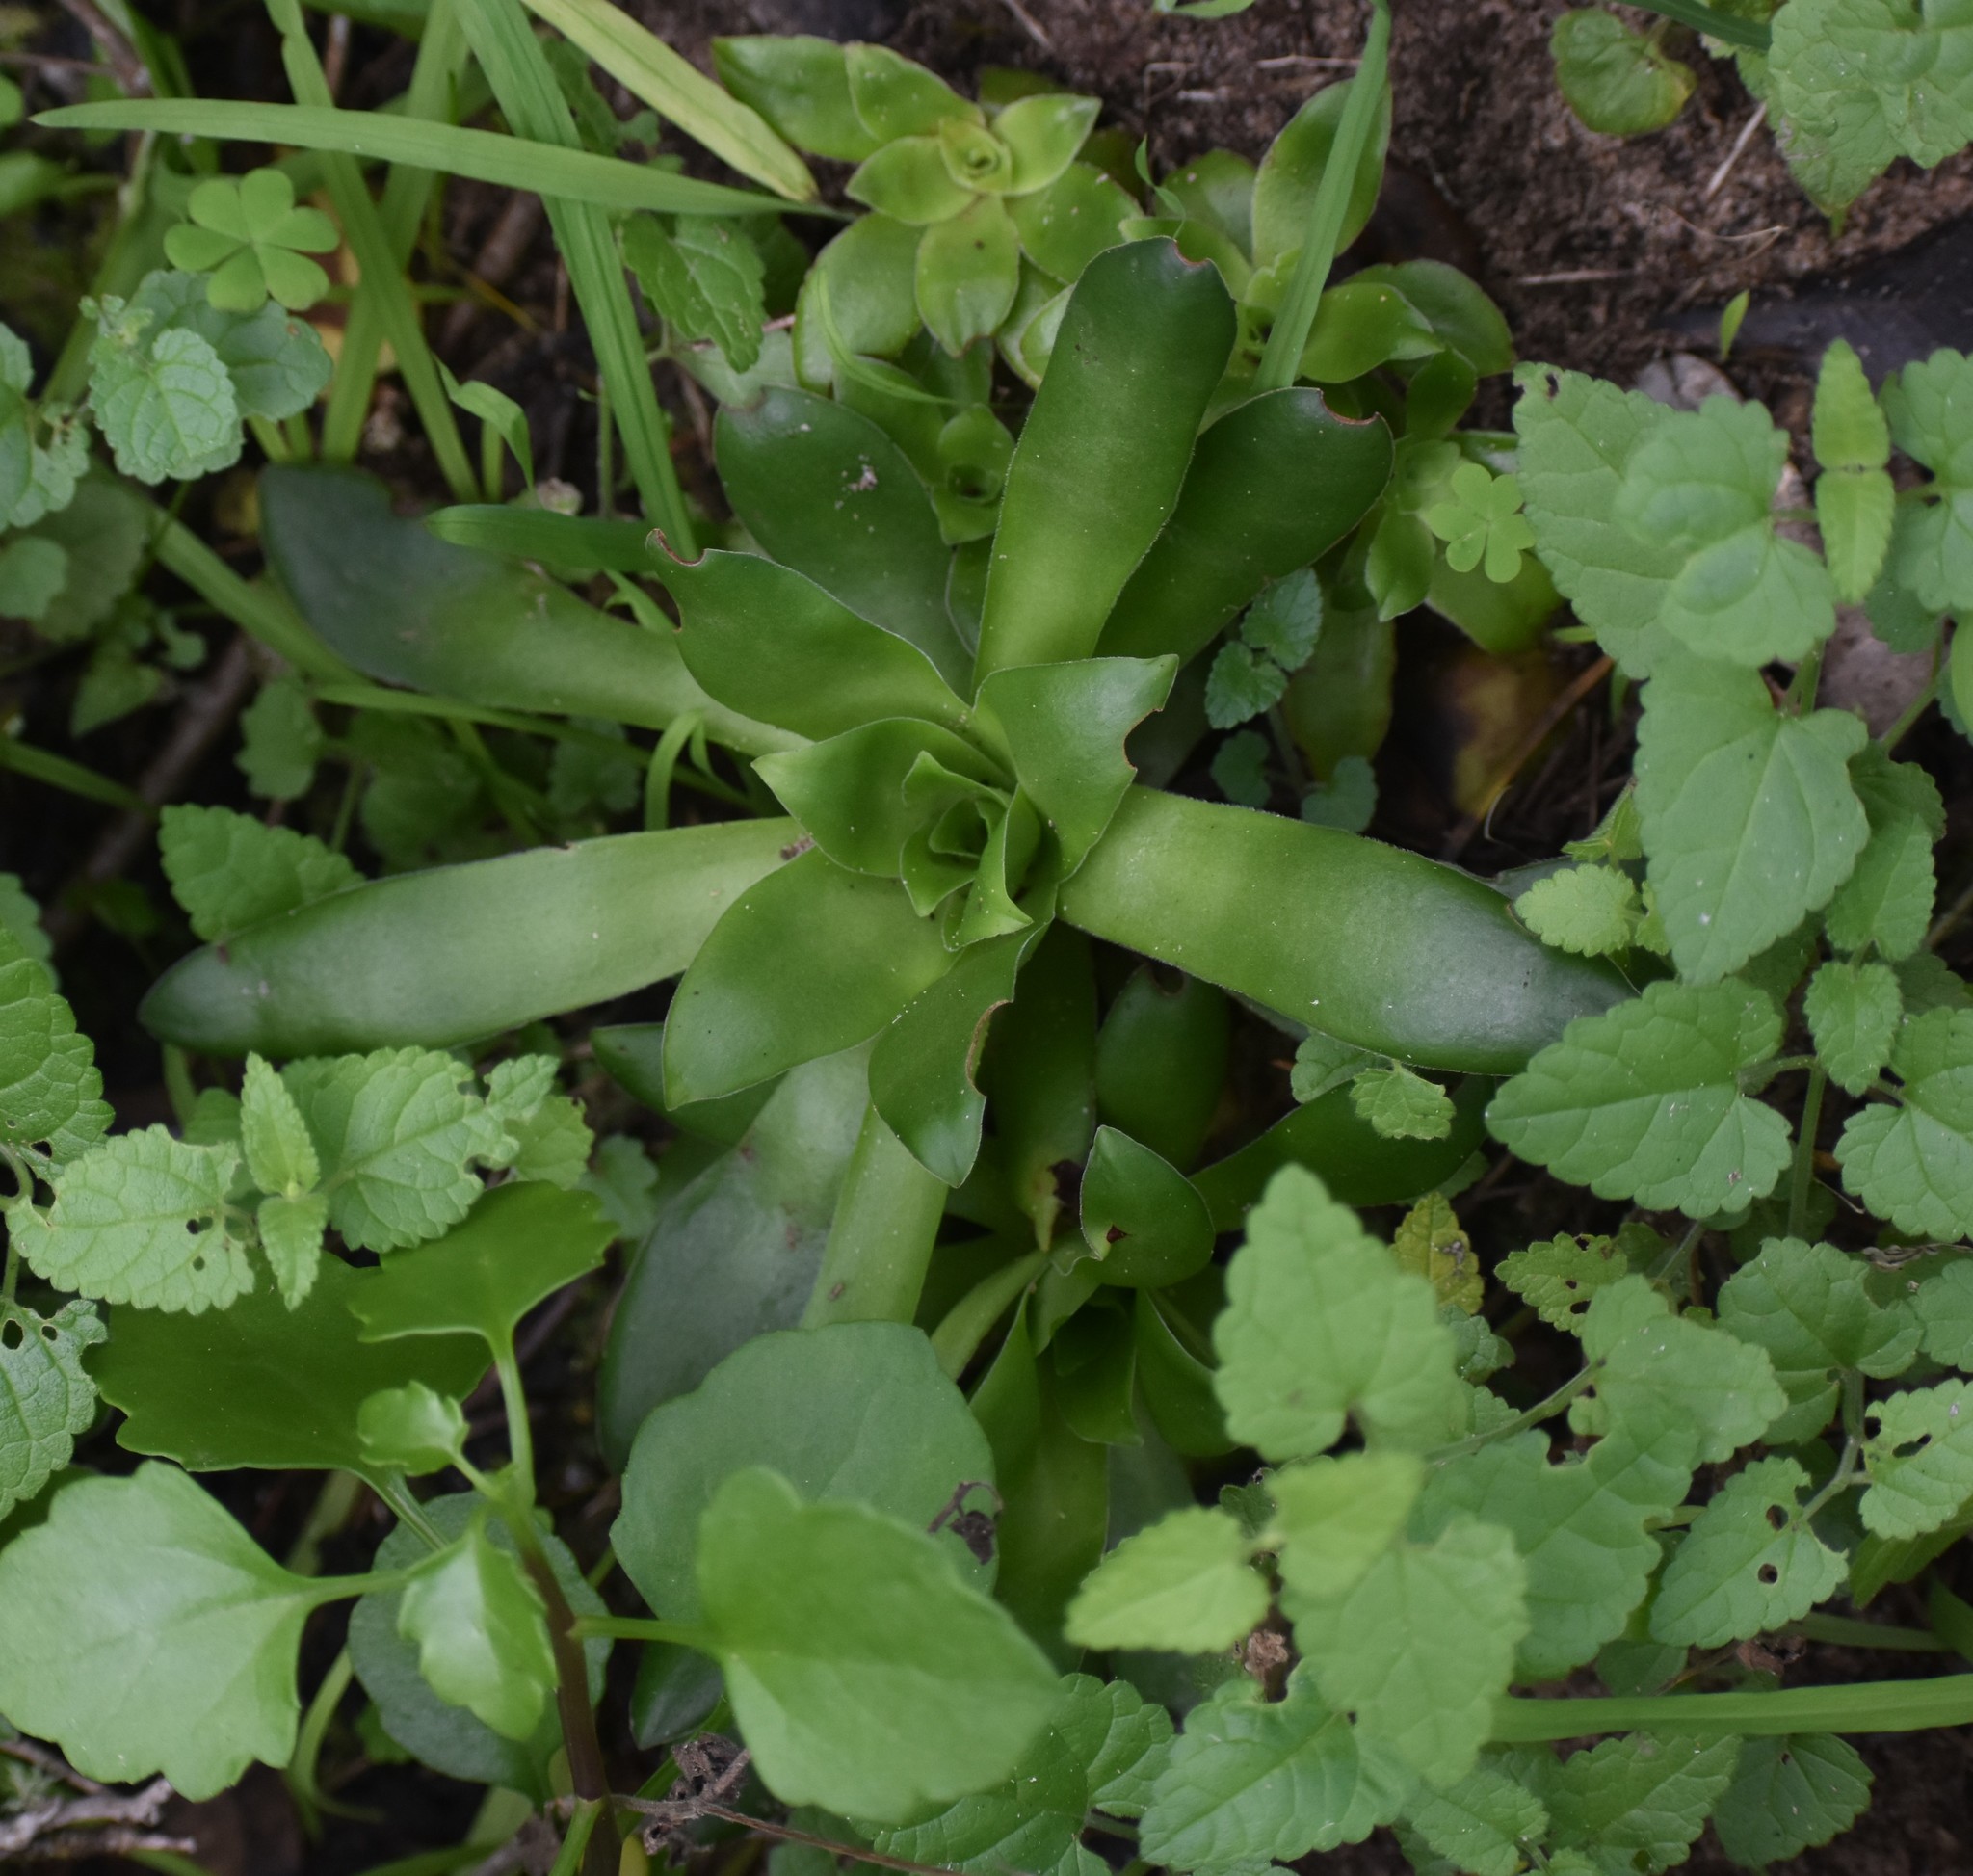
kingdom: Plantae
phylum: Tracheophyta
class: Magnoliopsida
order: Saxifragales
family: Crassulaceae
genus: Crassula
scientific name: Crassula orbicularis
